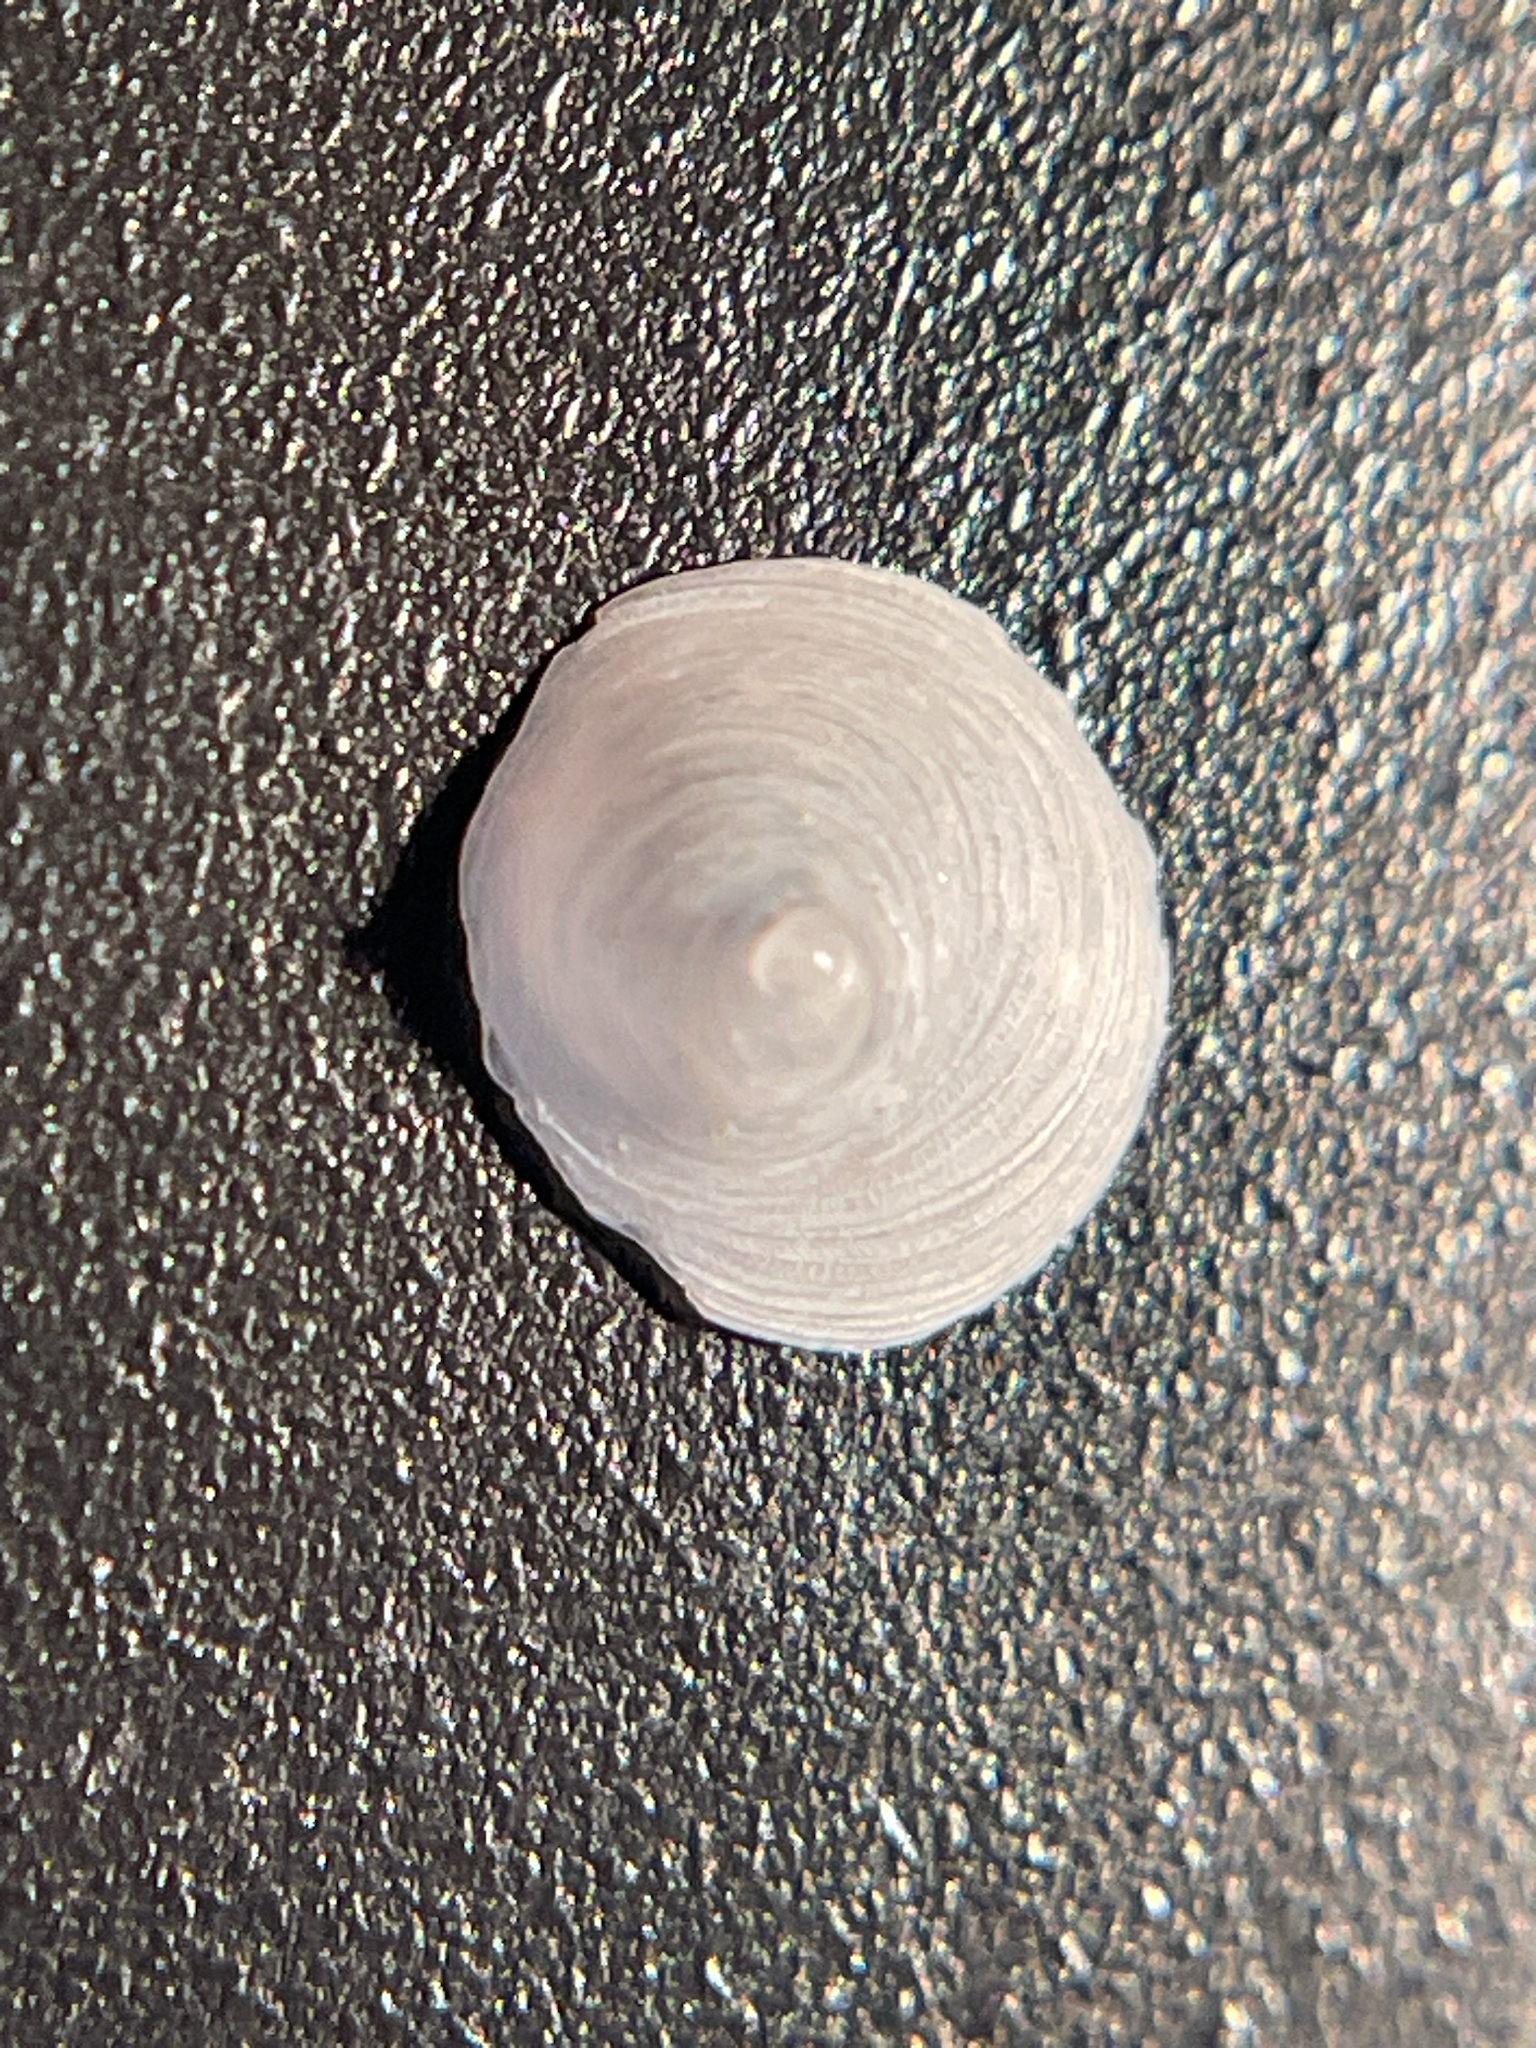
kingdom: Animalia
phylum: Mollusca
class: Gastropoda
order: Littorinimorpha
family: Calyptraeidae
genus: Calyptraea
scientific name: Calyptraea centralis
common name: Circular chinese hat
